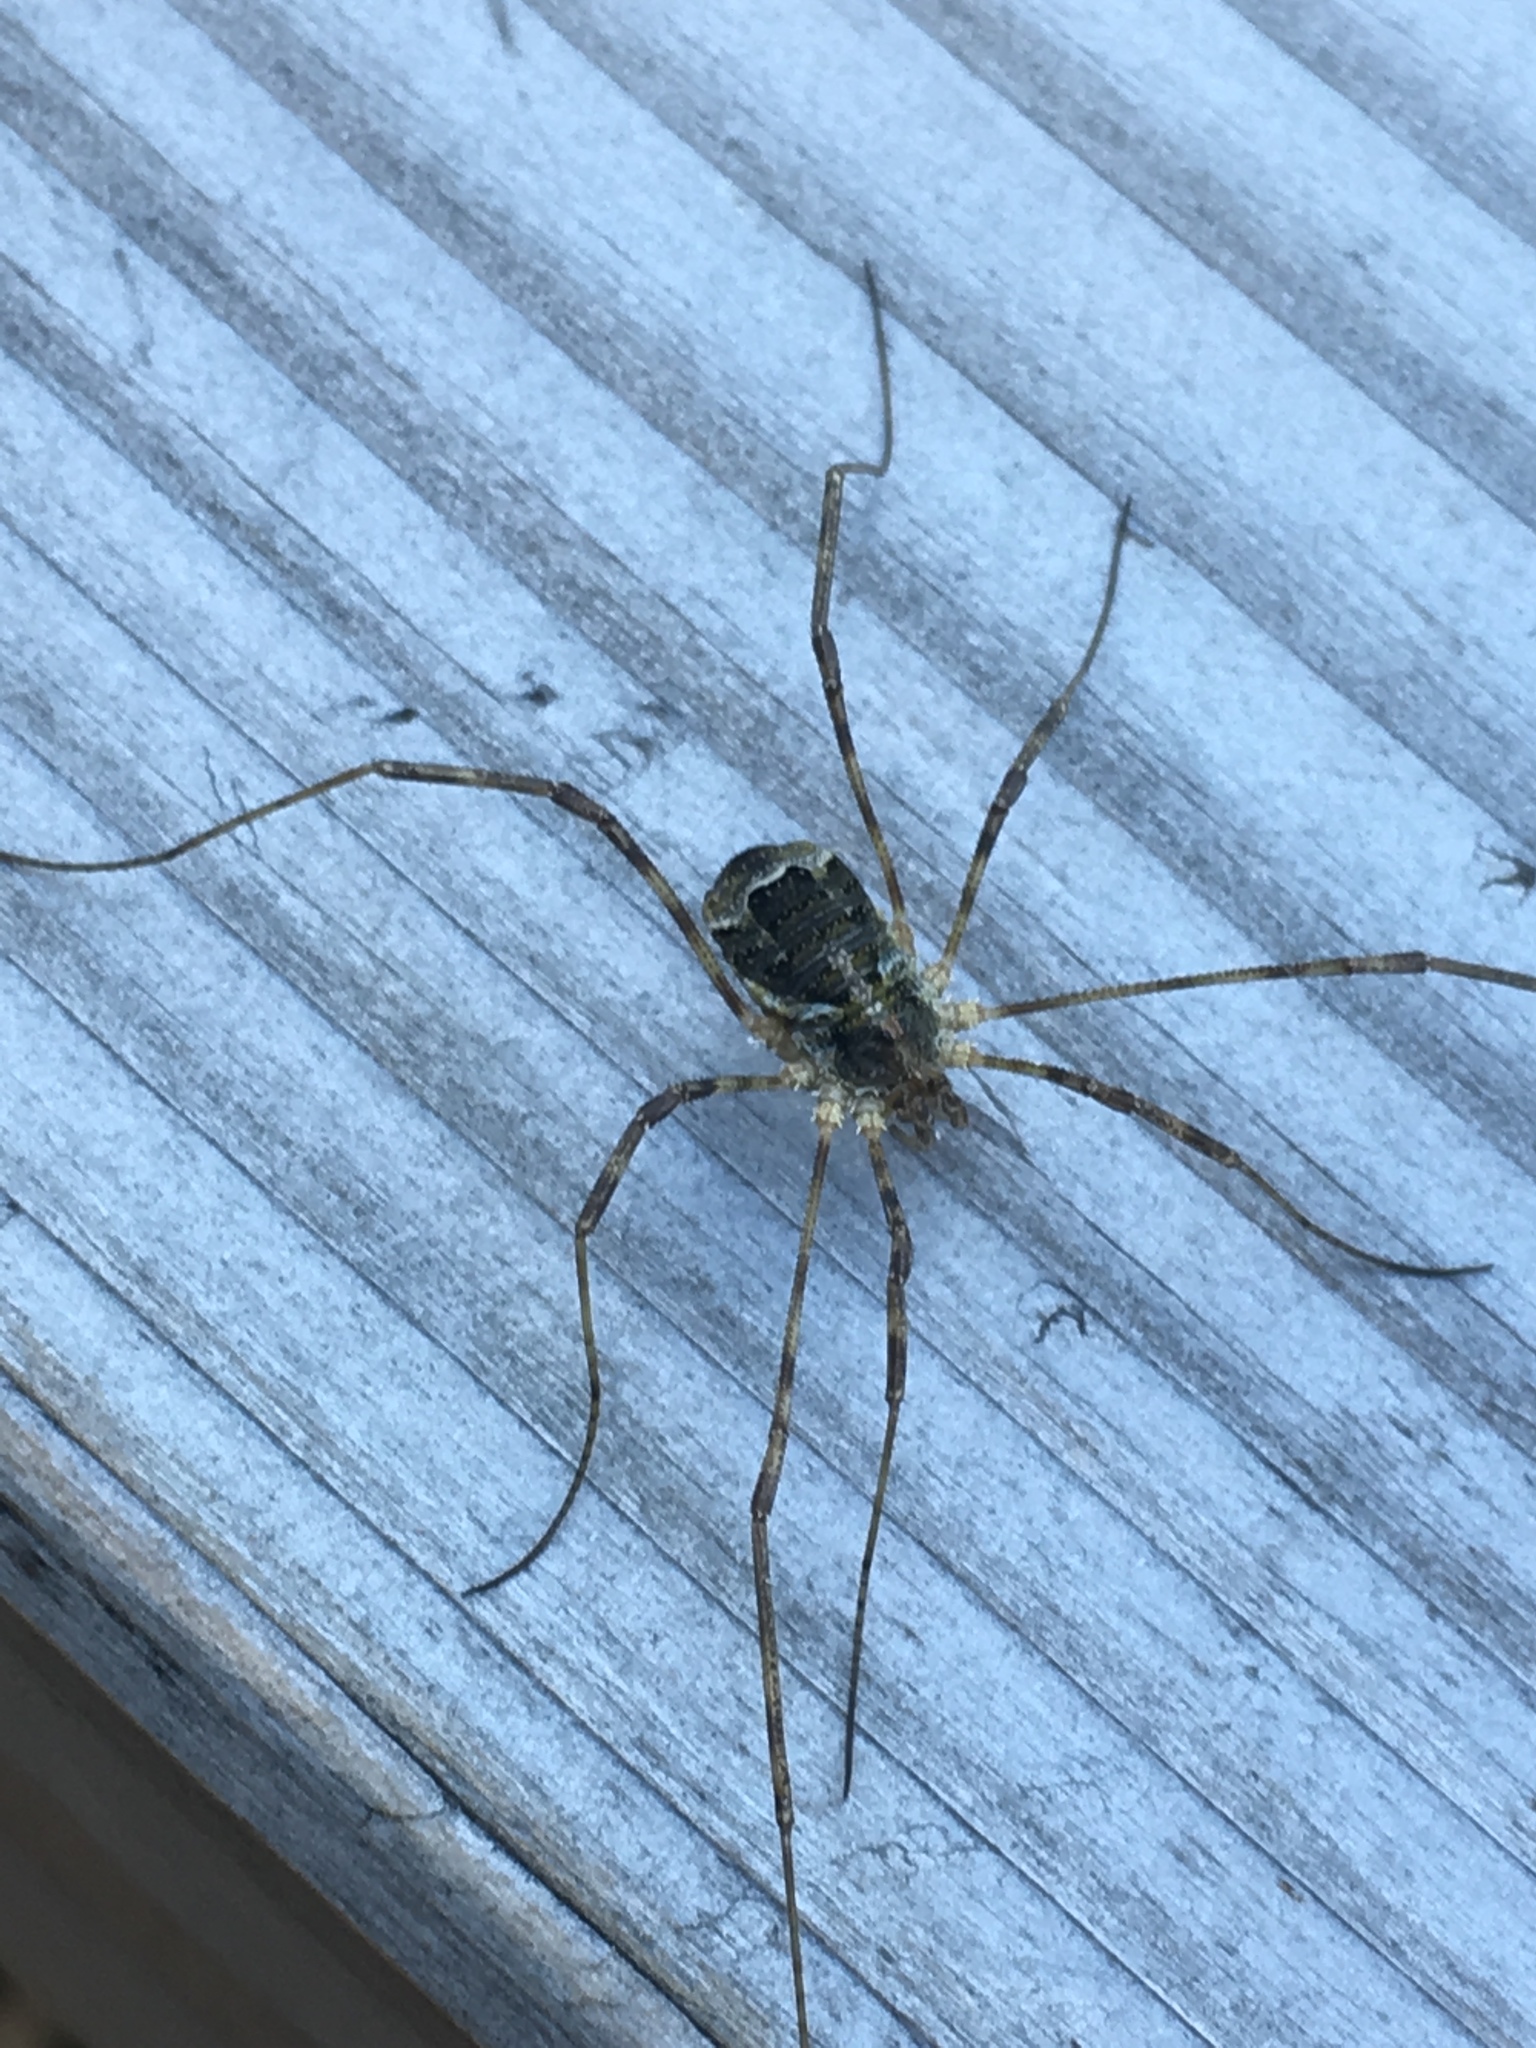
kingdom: Animalia
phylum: Arthropoda
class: Arachnida
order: Opiliones
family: Phalangiidae
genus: Lacinius
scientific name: Lacinius dentiger
